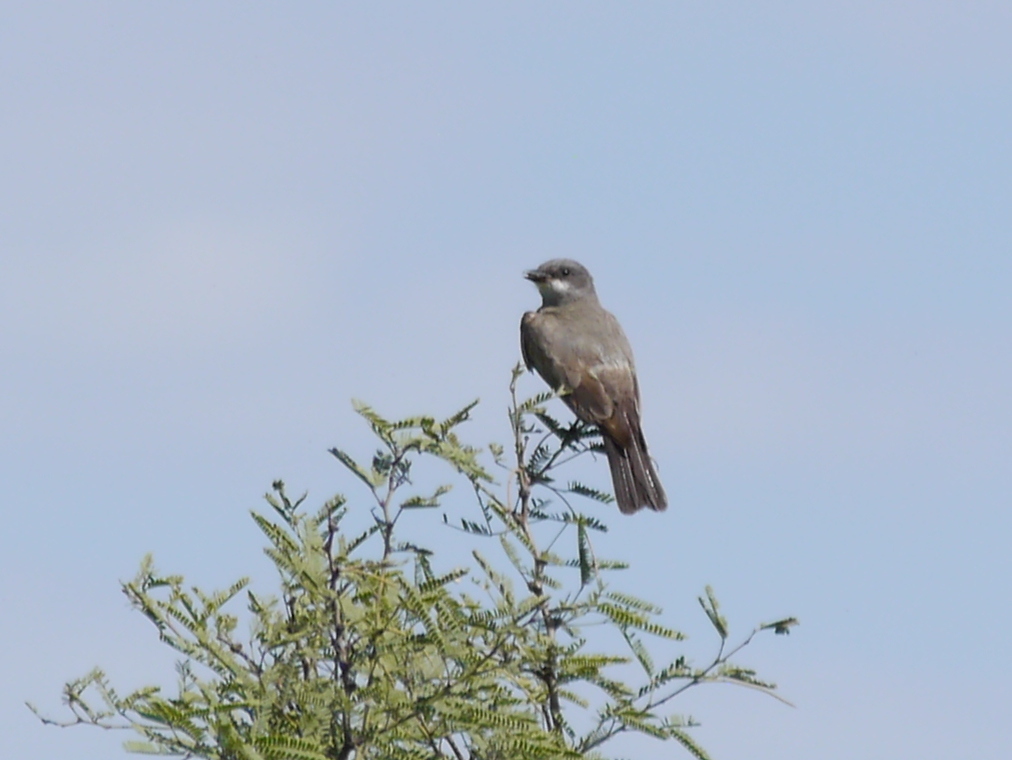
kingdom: Animalia
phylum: Chordata
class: Aves
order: Passeriformes
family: Tyrannidae
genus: Tyrannus
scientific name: Tyrannus vociferans
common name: Cassin's kingbird
